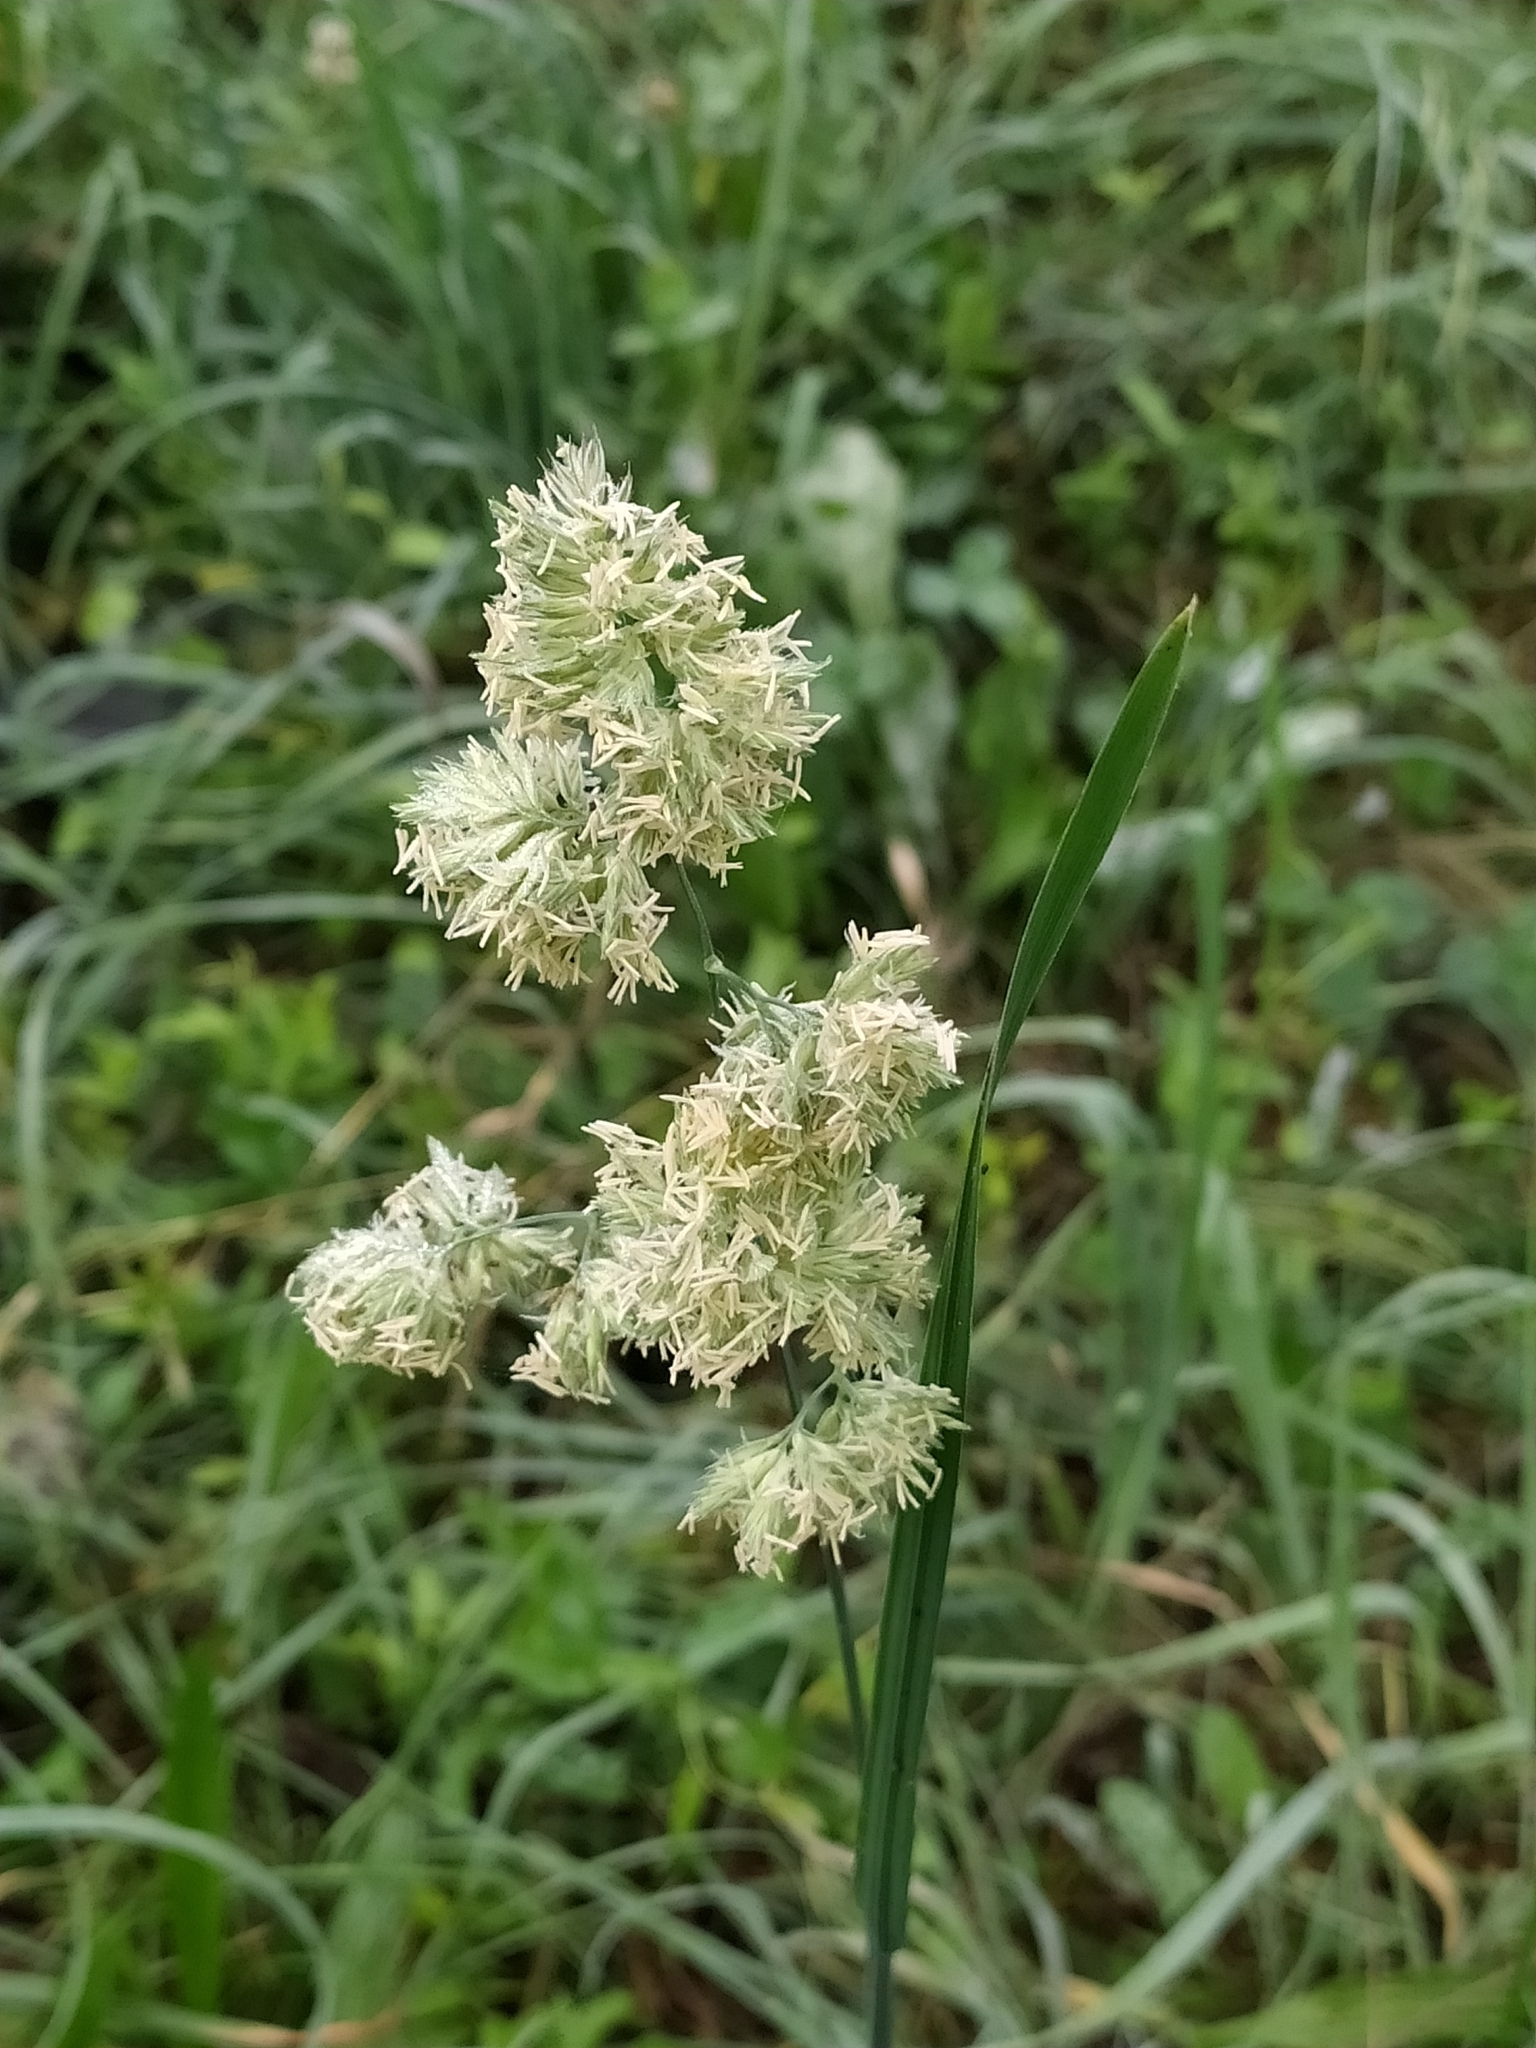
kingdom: Plantae
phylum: Tracheophyta
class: Liliopsida
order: Poales
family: Poaceae
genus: Dactylis
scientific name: Dactylis glomerata
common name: Orchardgrass
